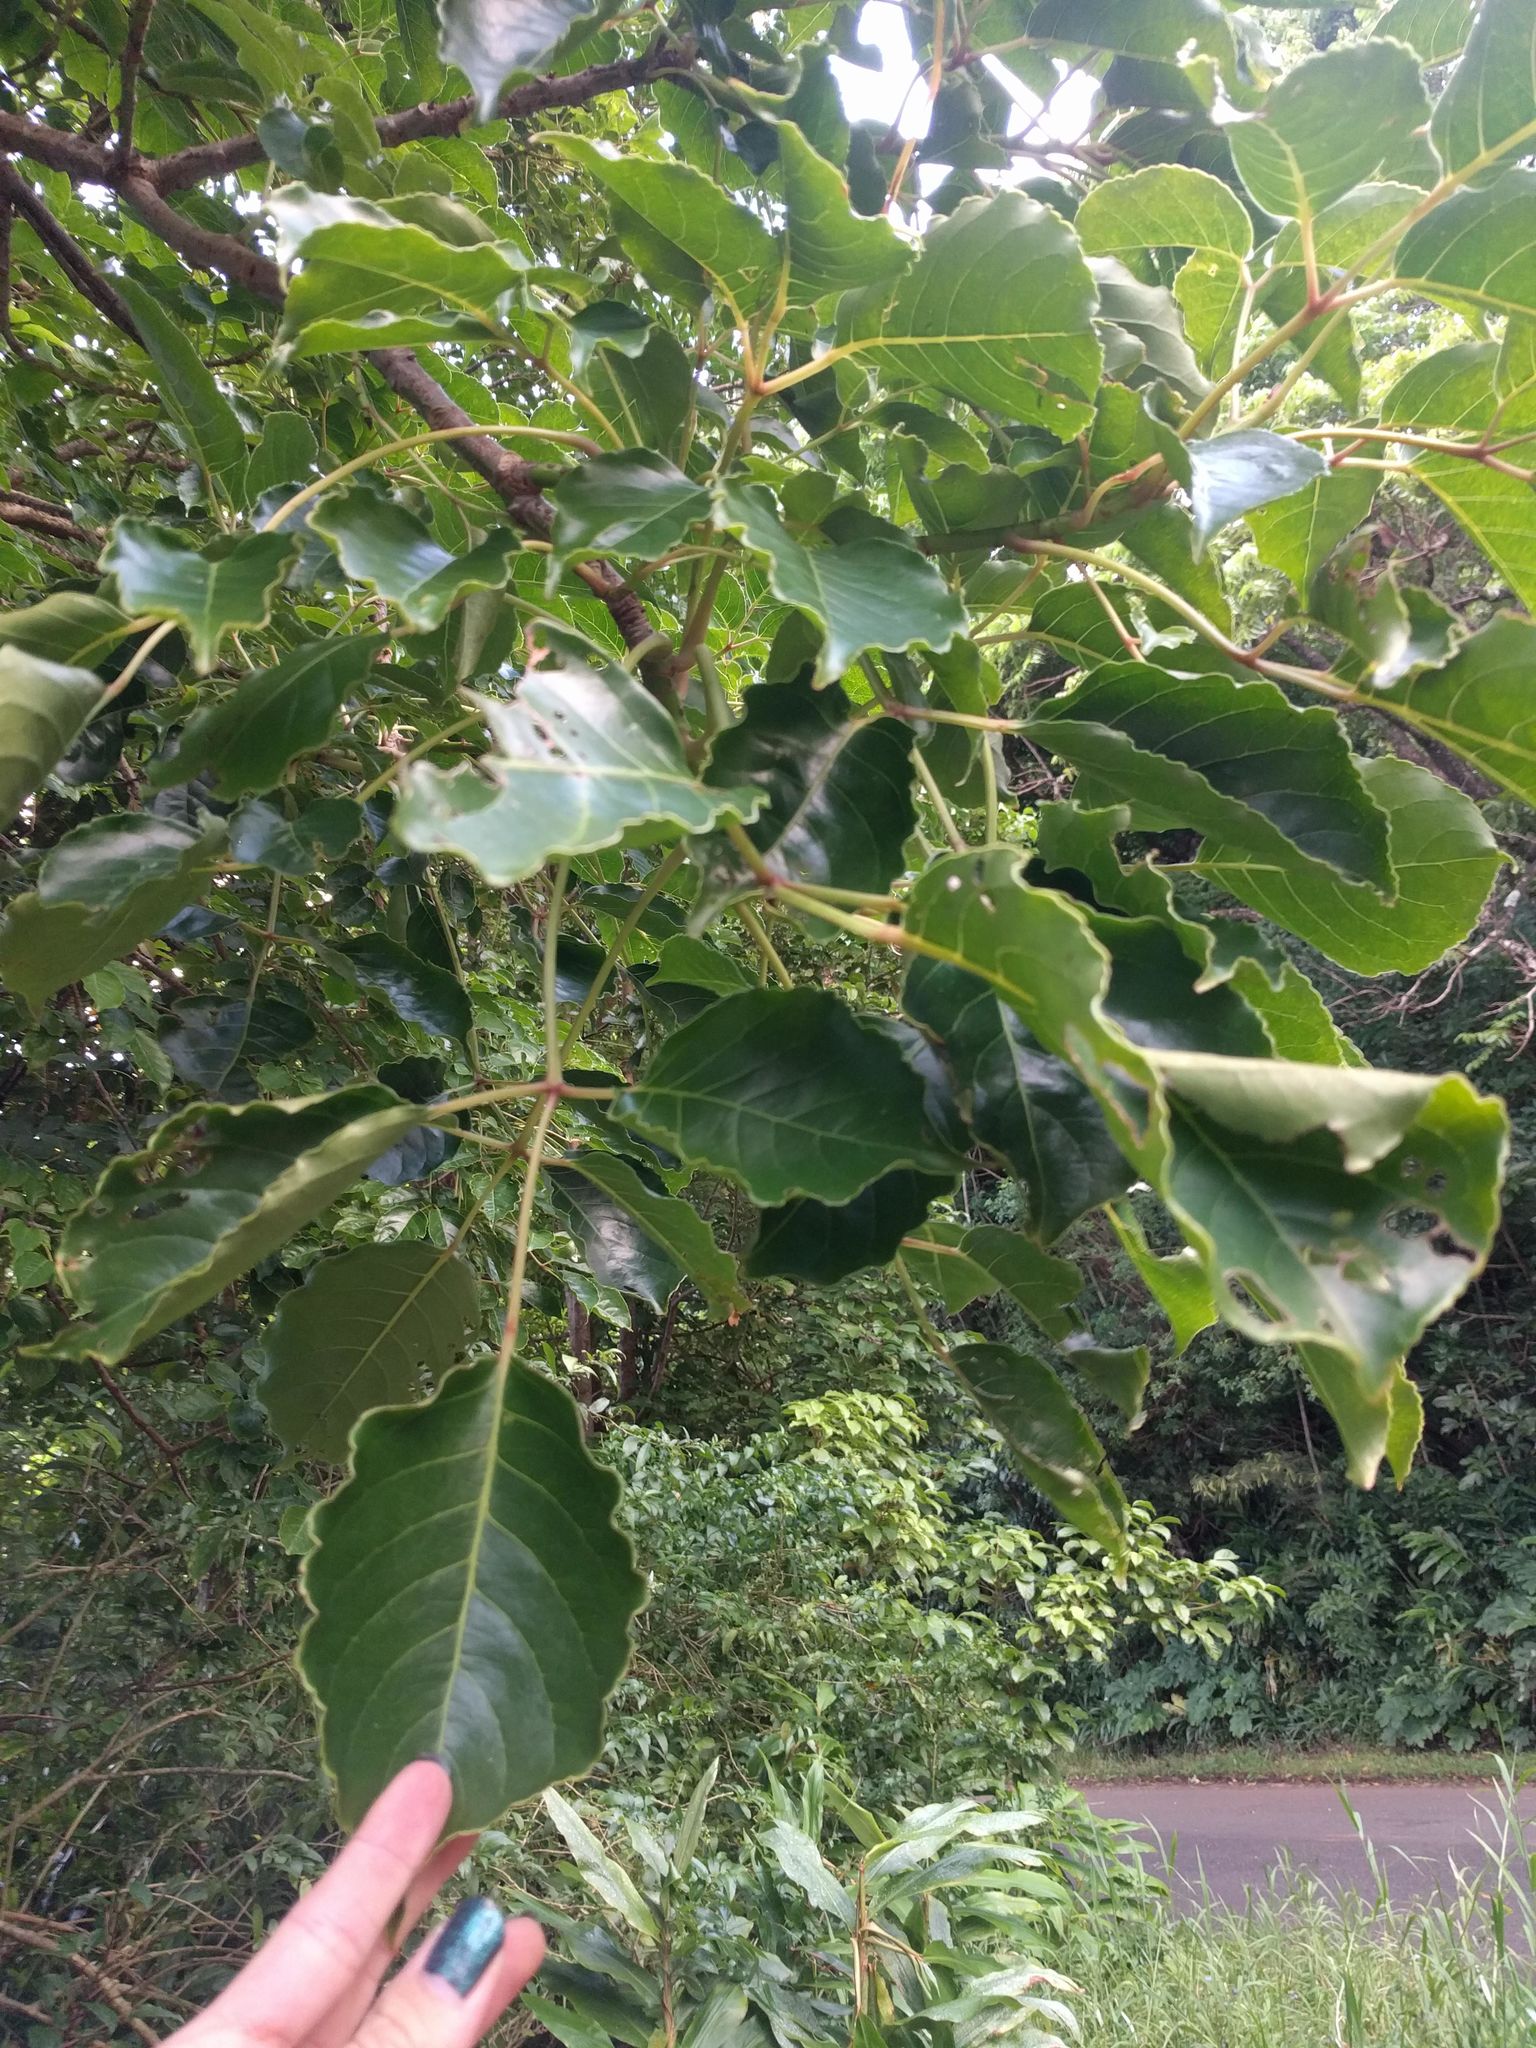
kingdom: Plantae
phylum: Tracheophyta
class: Magnoliopsida
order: Malpighiales
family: Phyllanthaceae
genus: Bischofia
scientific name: Bischofia javanica
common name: Javanese bishopwood
